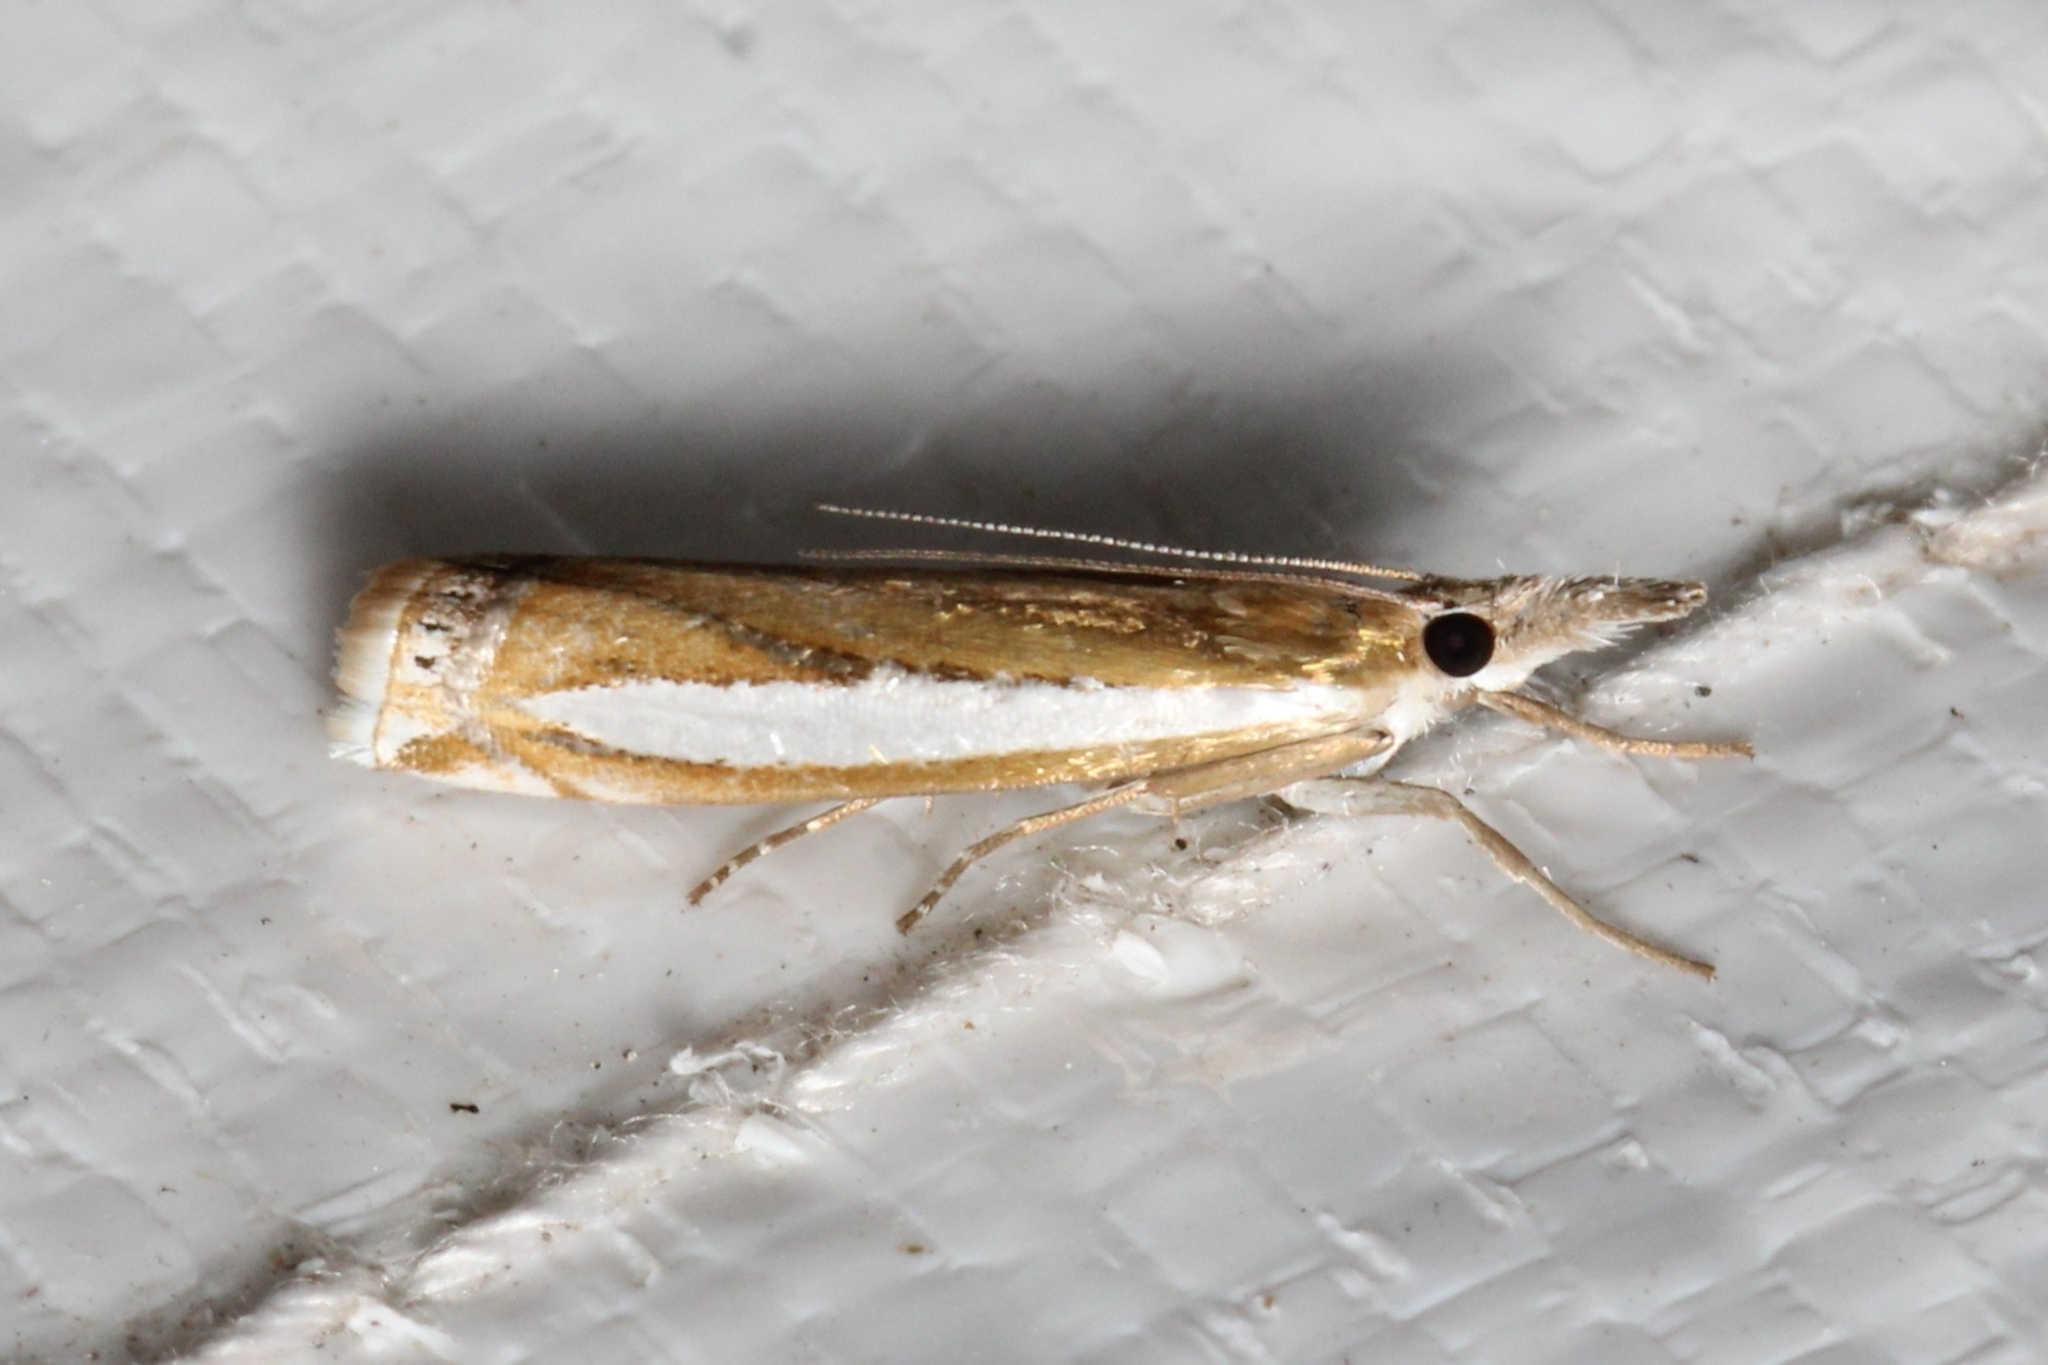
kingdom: Animalia
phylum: Arthropoda
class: Insecta
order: Lepidoptera
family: Crambidae
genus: Crambus
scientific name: Crambus praefectellus
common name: Common grass-veneer
